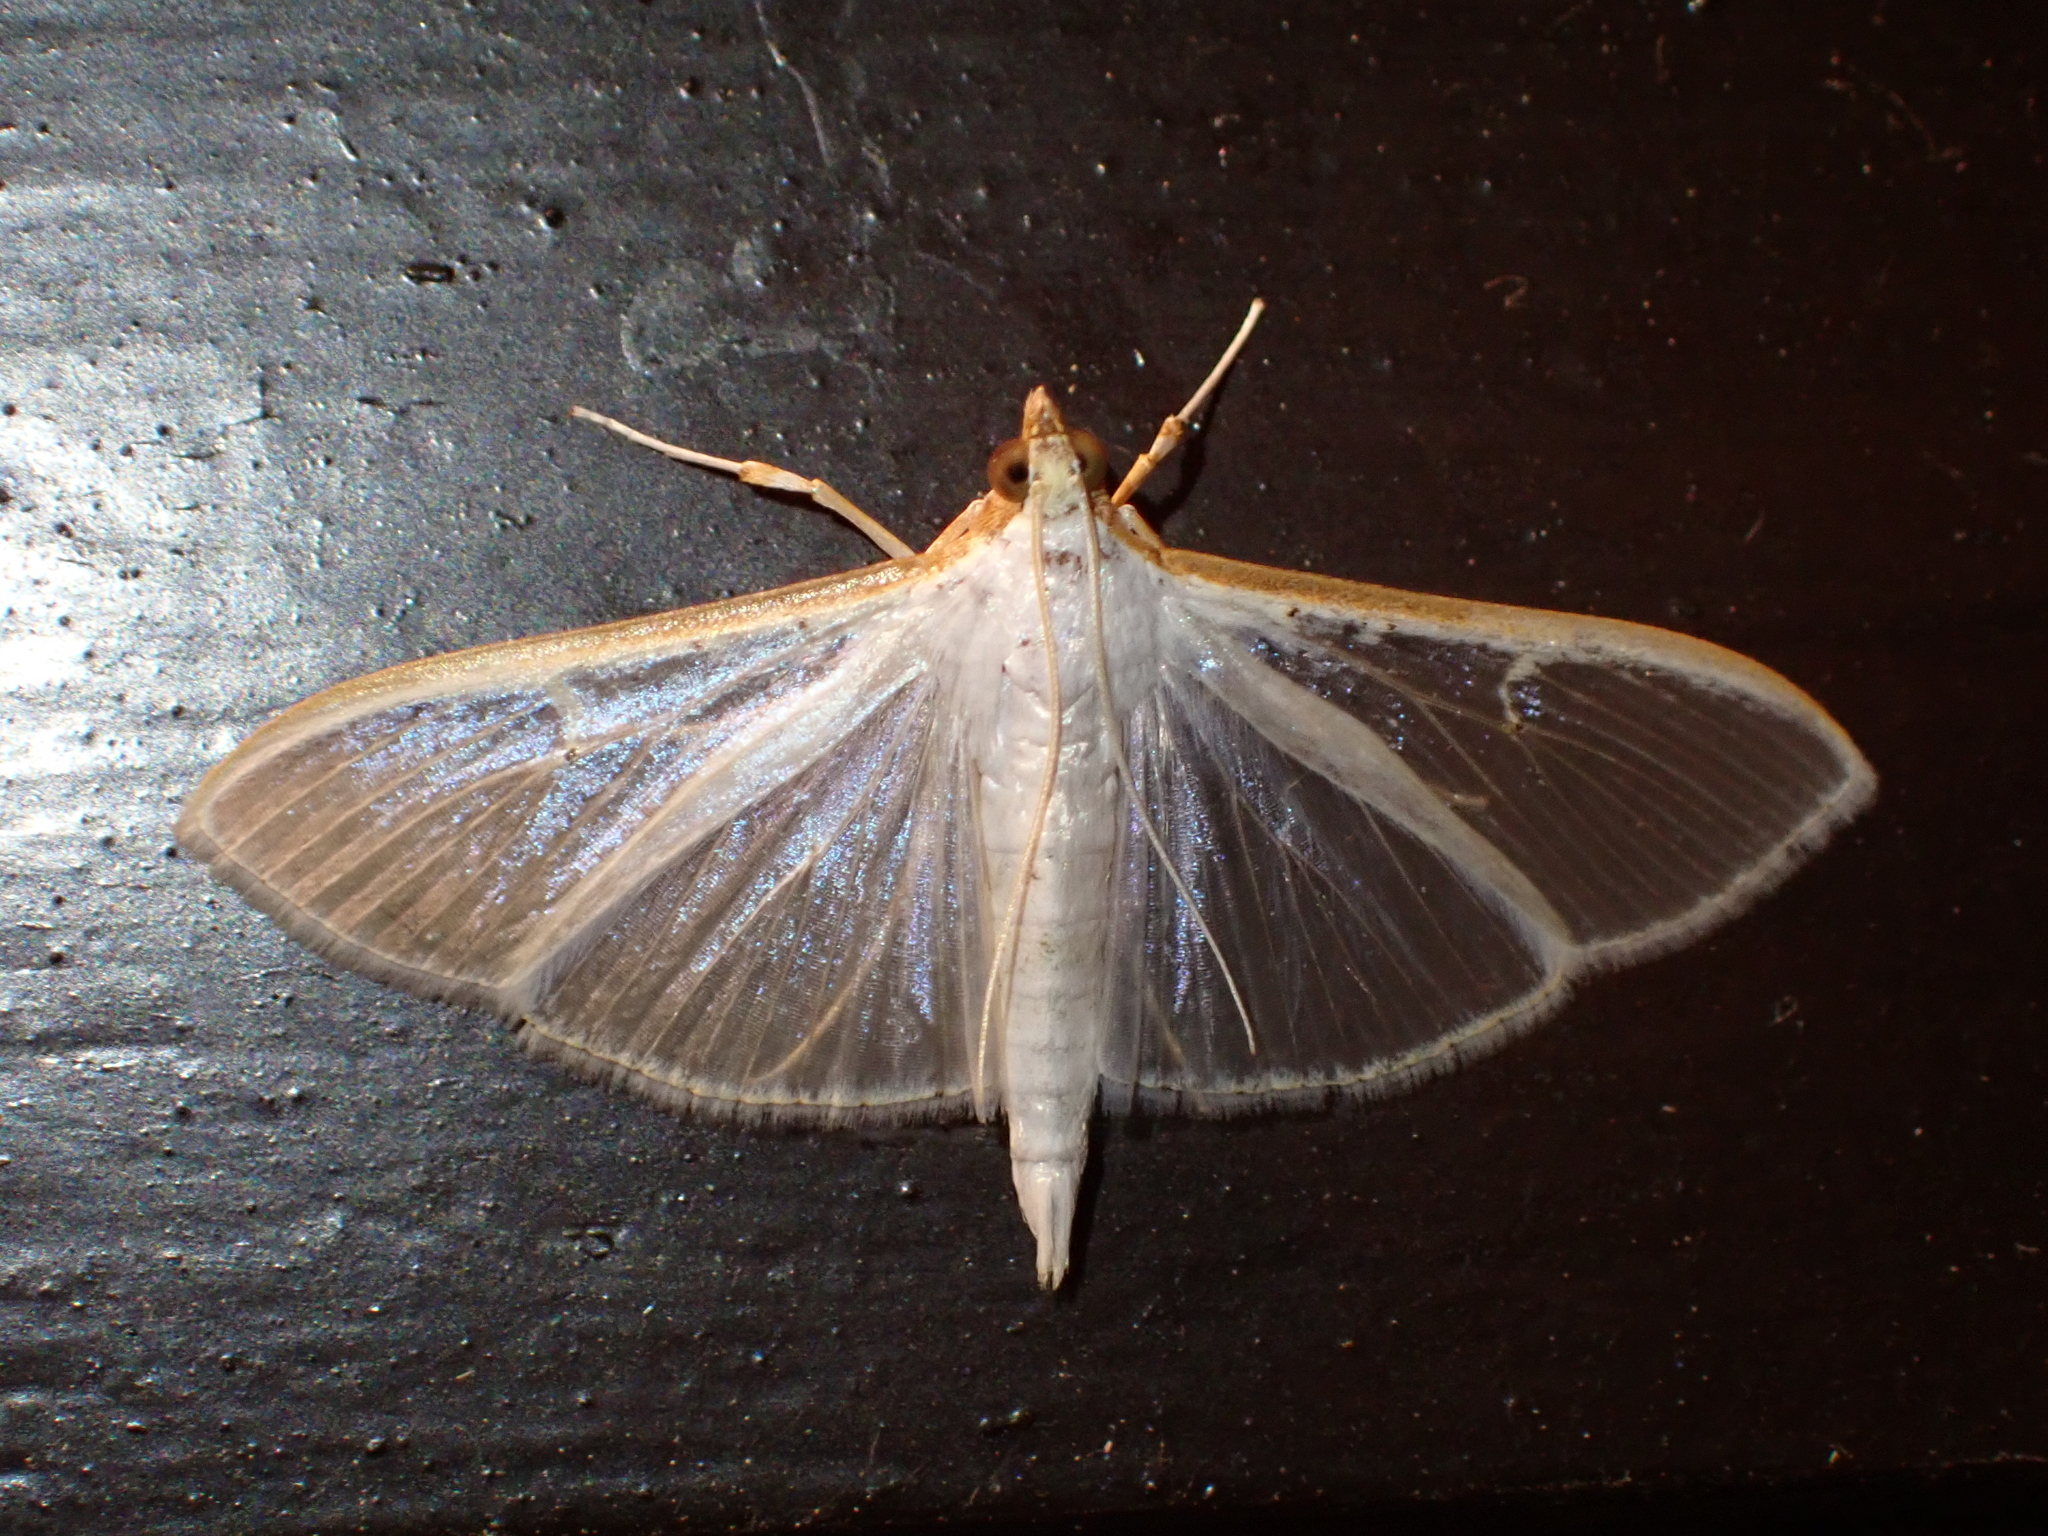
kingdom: Animalia
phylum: Arthropoda
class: Insecta
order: Lepidoptera
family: Crambidae
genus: Palpita
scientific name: Palpita vitrealis
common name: Olive-tree pearl
